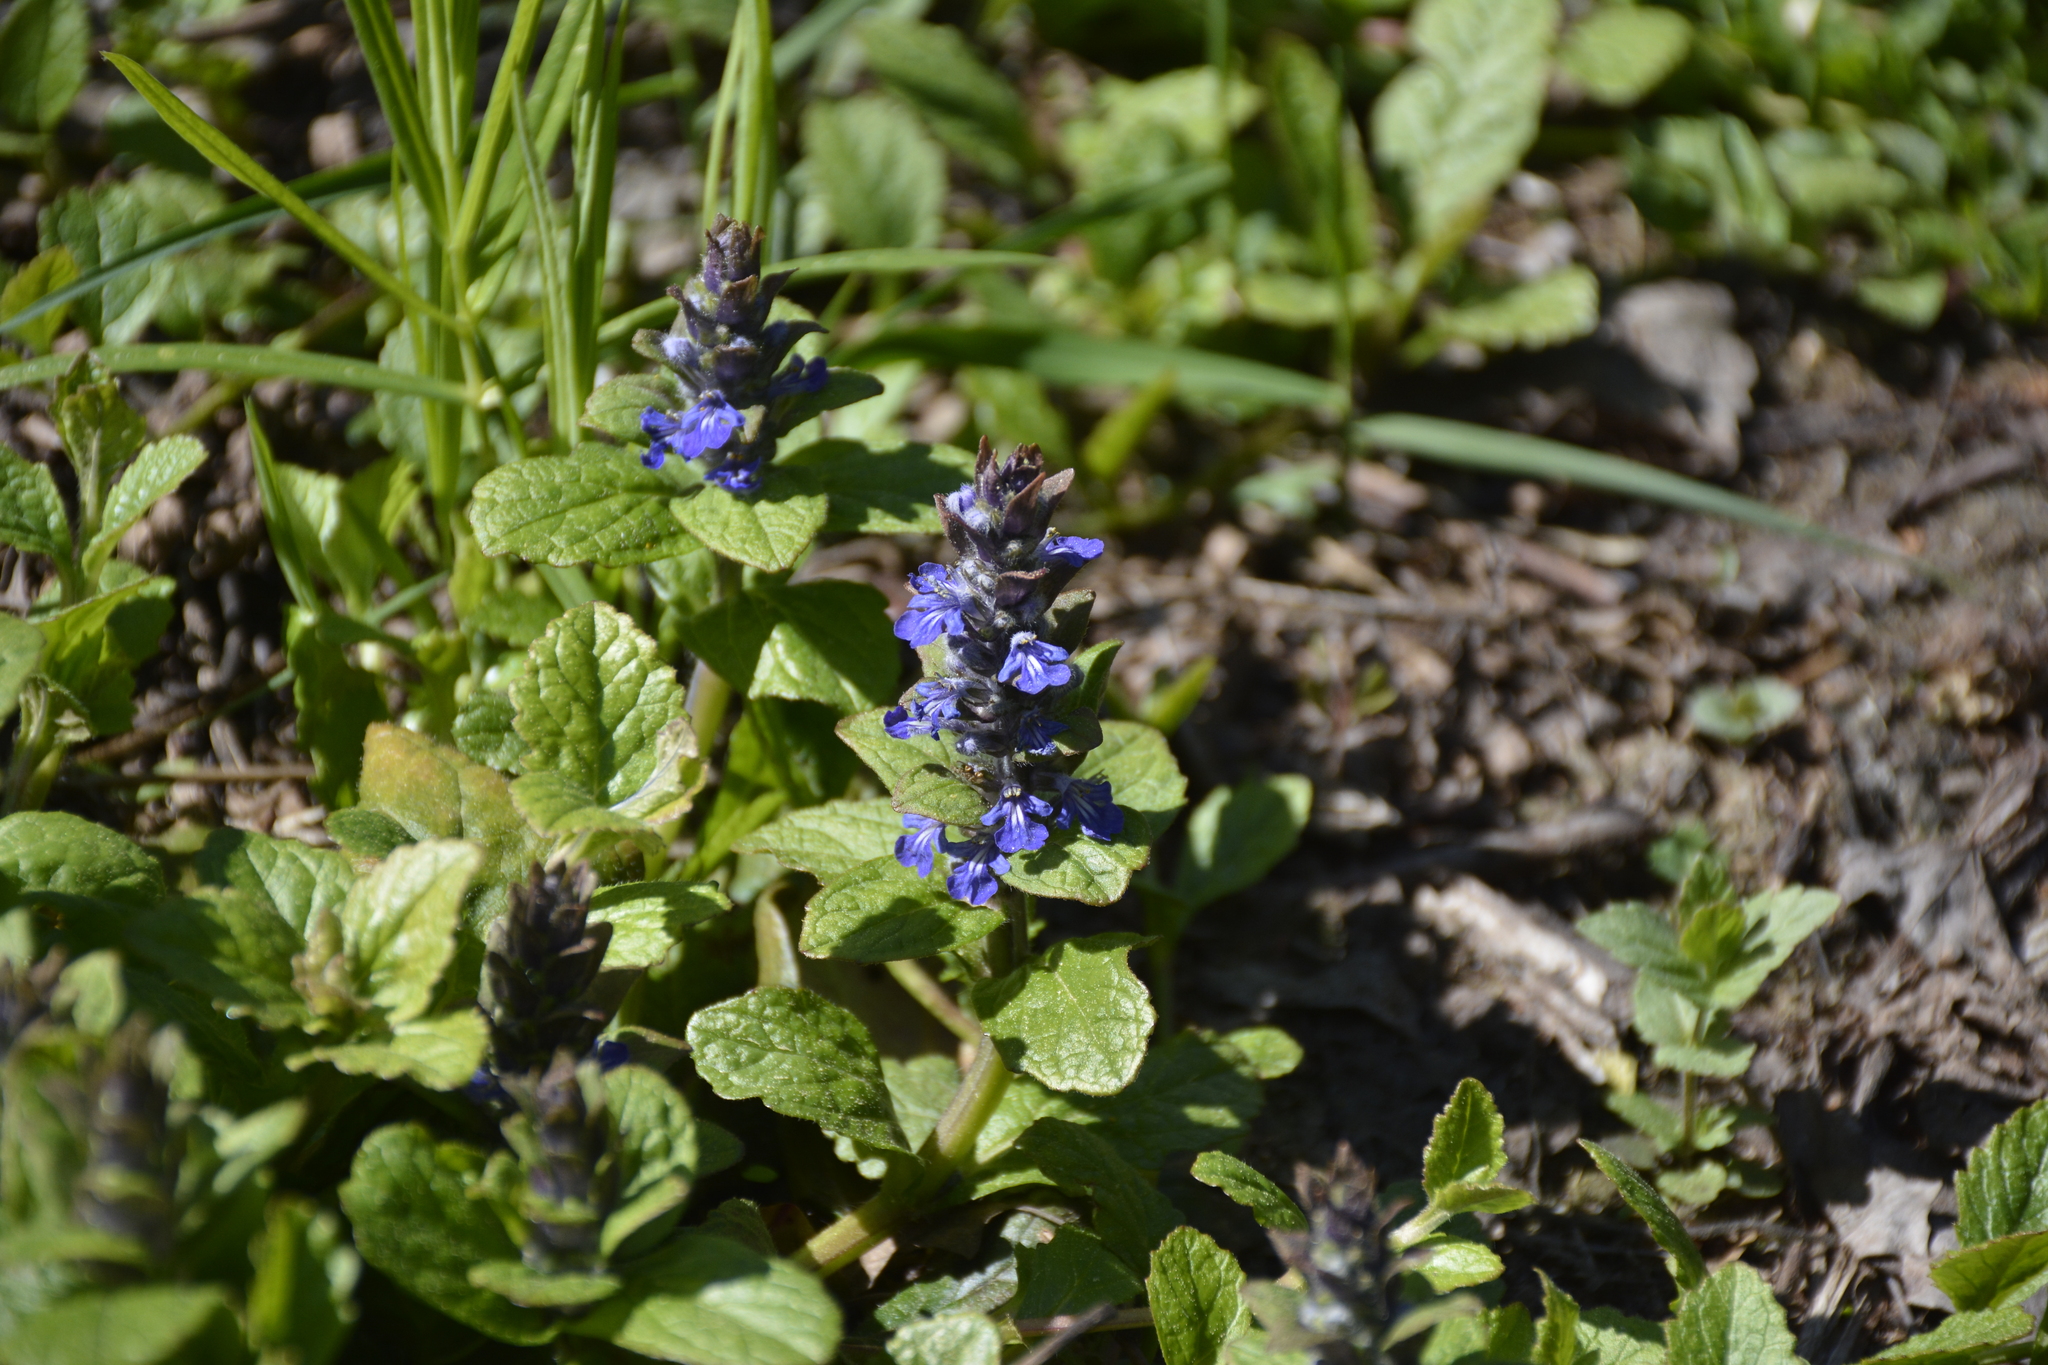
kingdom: Plantae
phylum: Tracheophyta
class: Magnoliopsida
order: Lamiales
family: Lamiaceae
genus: Ajuga
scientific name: Ajuga reptans
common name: Bugle
